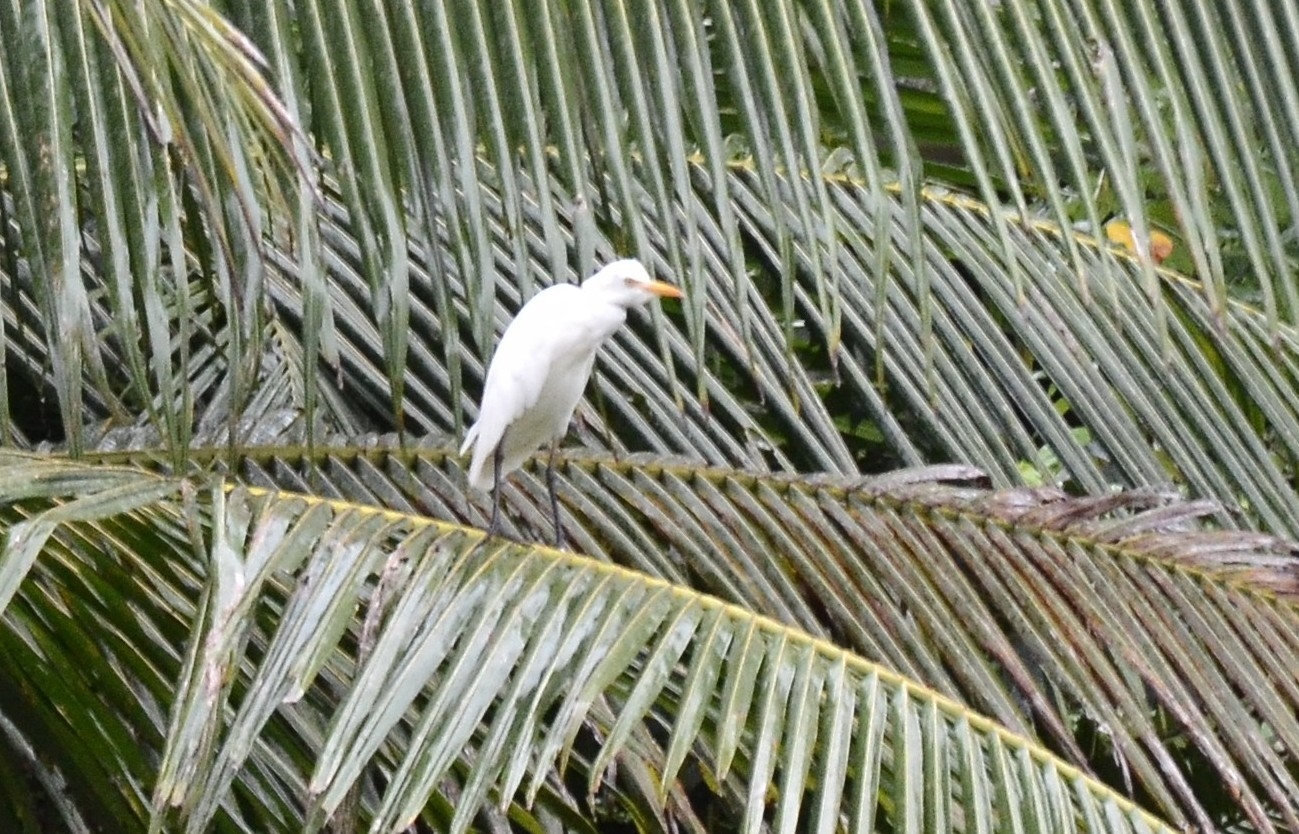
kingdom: Animalia
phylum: Chordata
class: Aves
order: Pelecaniformes
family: Ardeidae
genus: Bubulcus
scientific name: Bubulcus coromandus
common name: Eastern cattle egret
